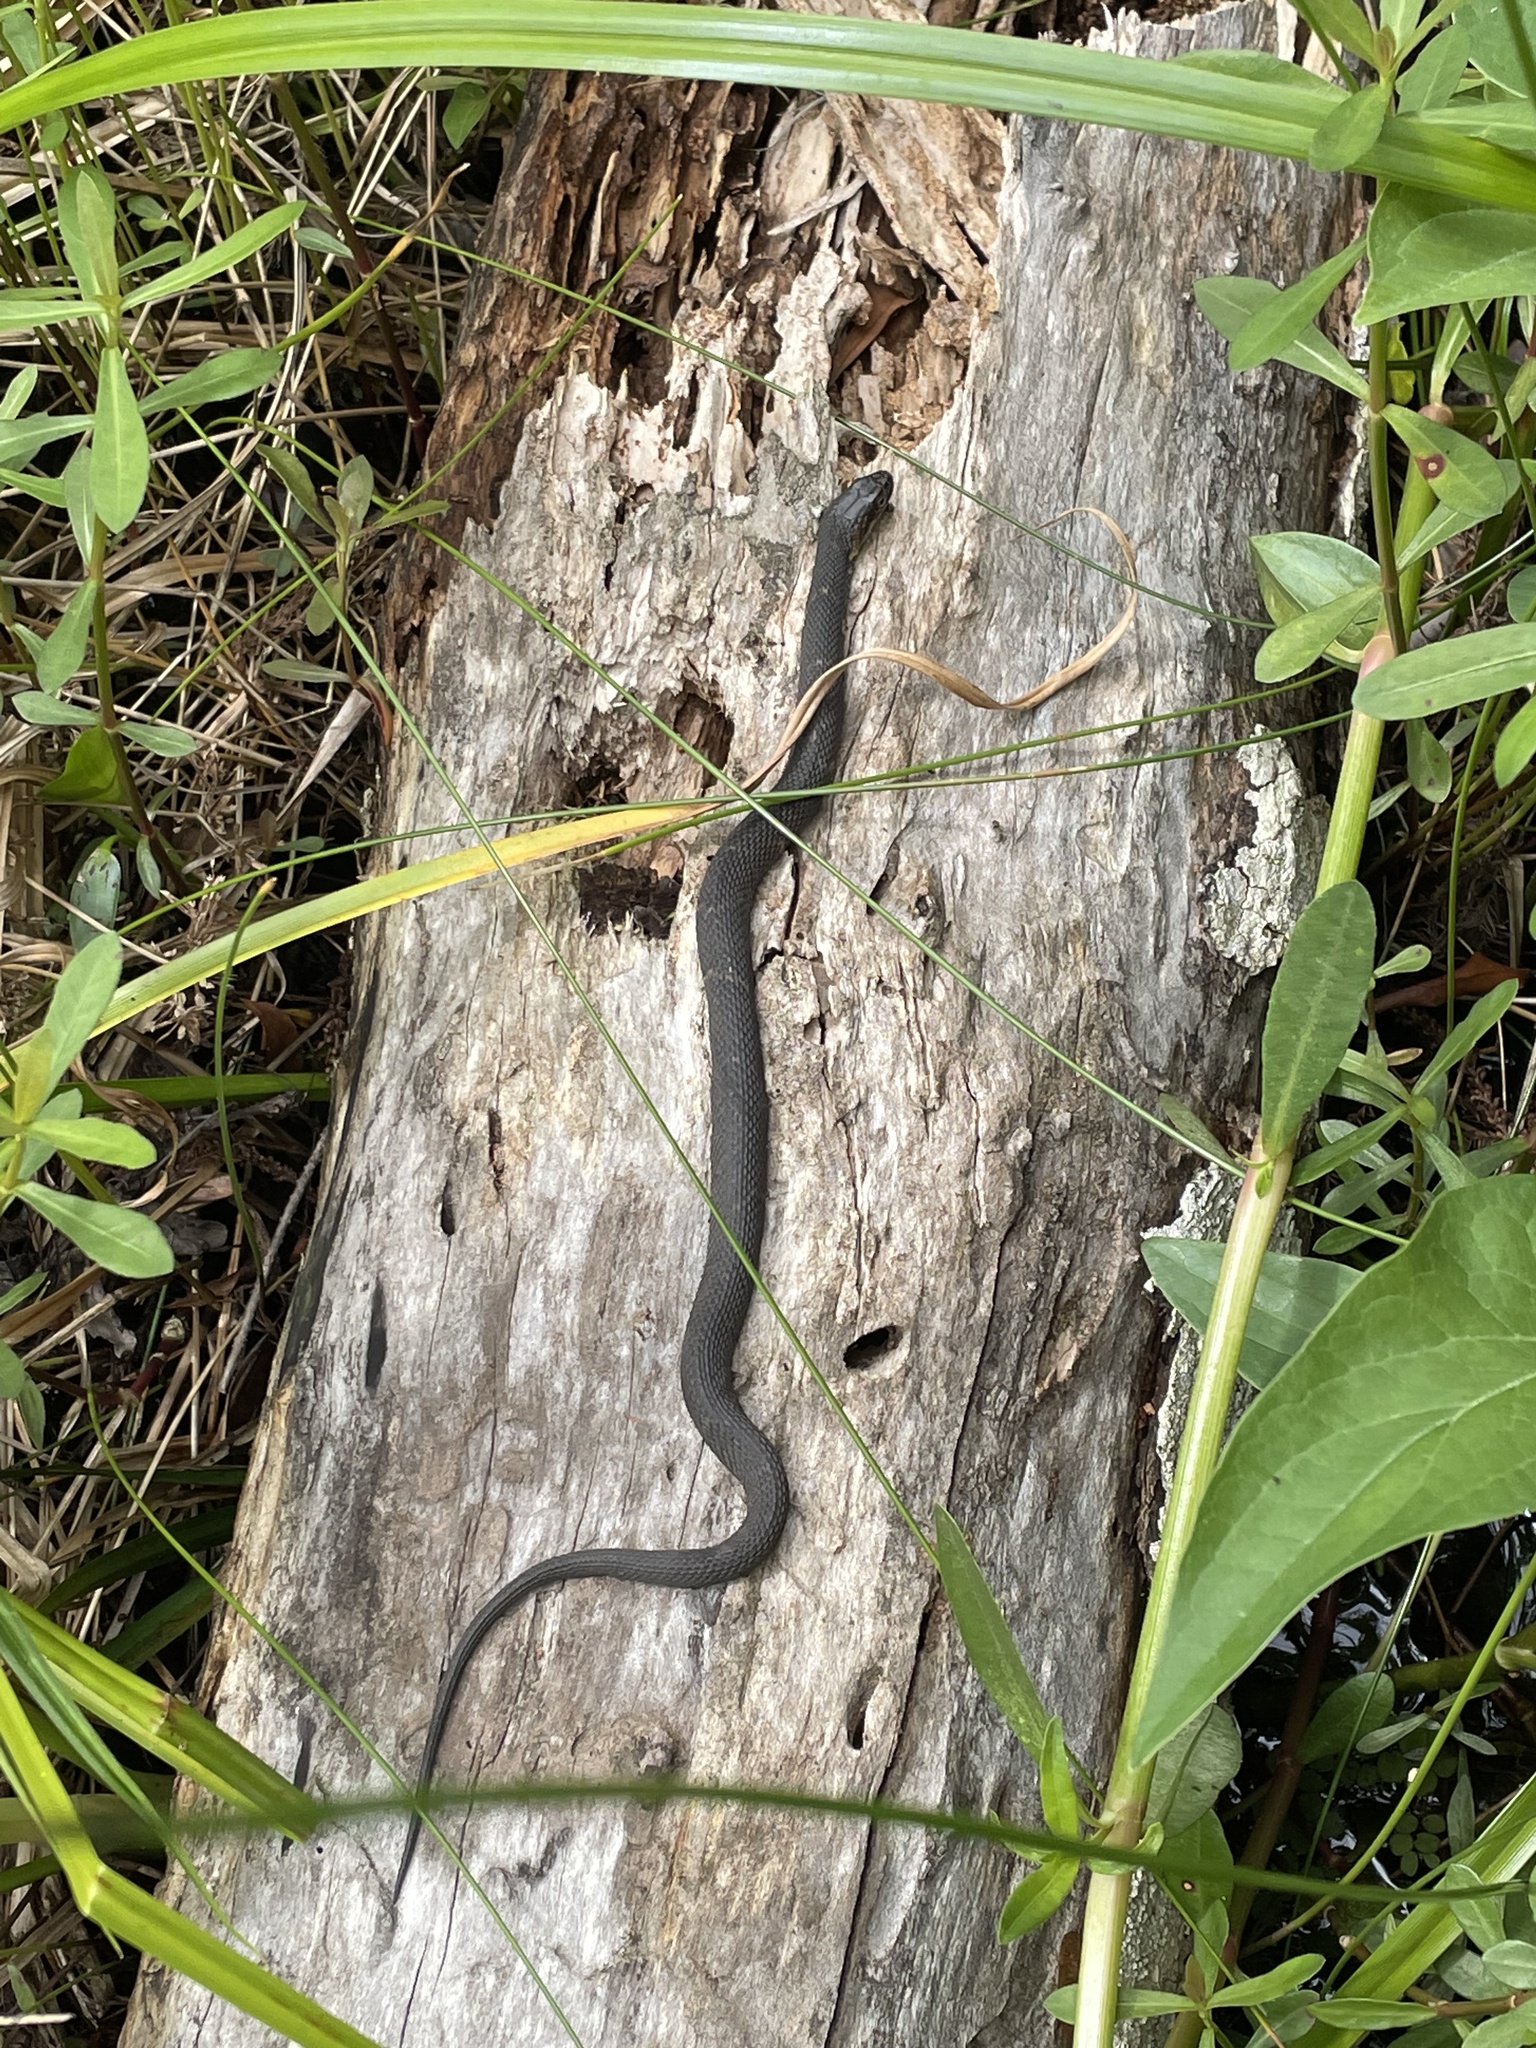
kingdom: Animalia
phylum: Chordata
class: Squamata
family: Colubridae
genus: Nerodia
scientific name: Nerodia fasciata
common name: Southern water snake
